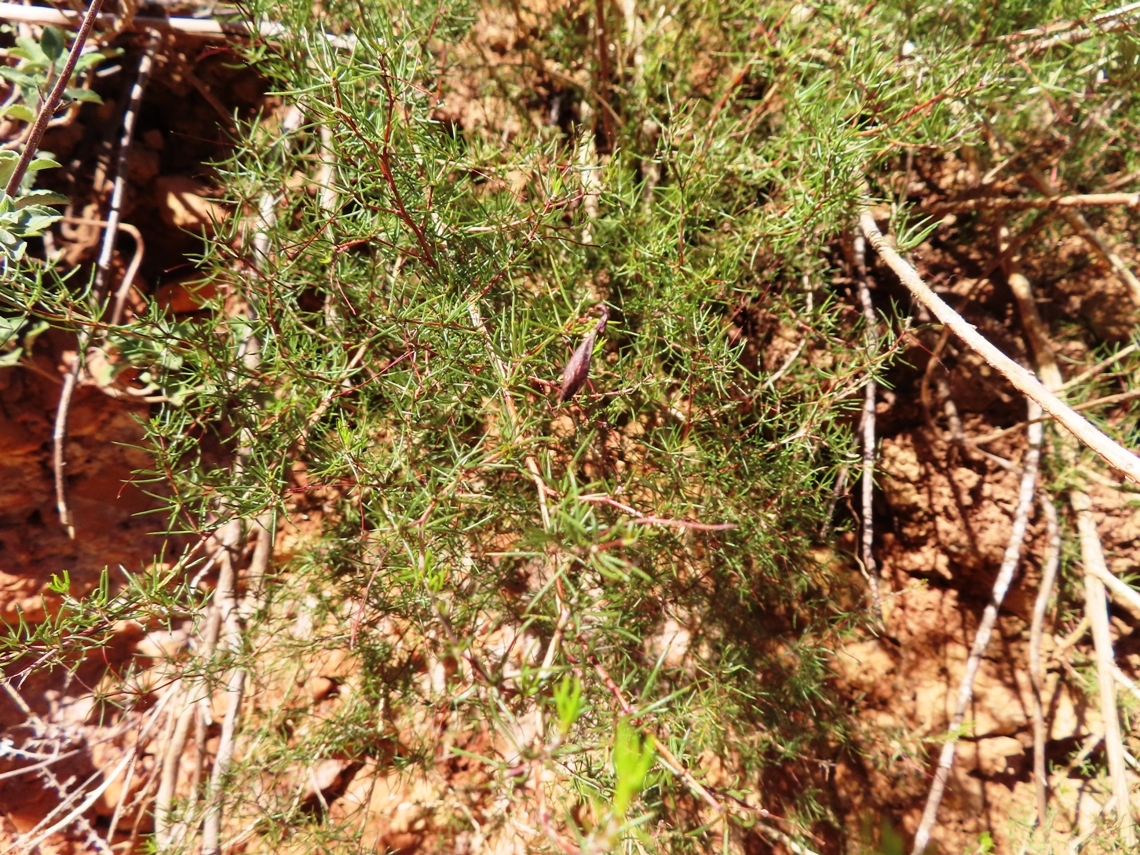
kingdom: Plantae
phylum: Tracheophyta
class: Magnoliopsida
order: Fabales
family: Fabaceae
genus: Aspalathus
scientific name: Aspalathus bracteata
